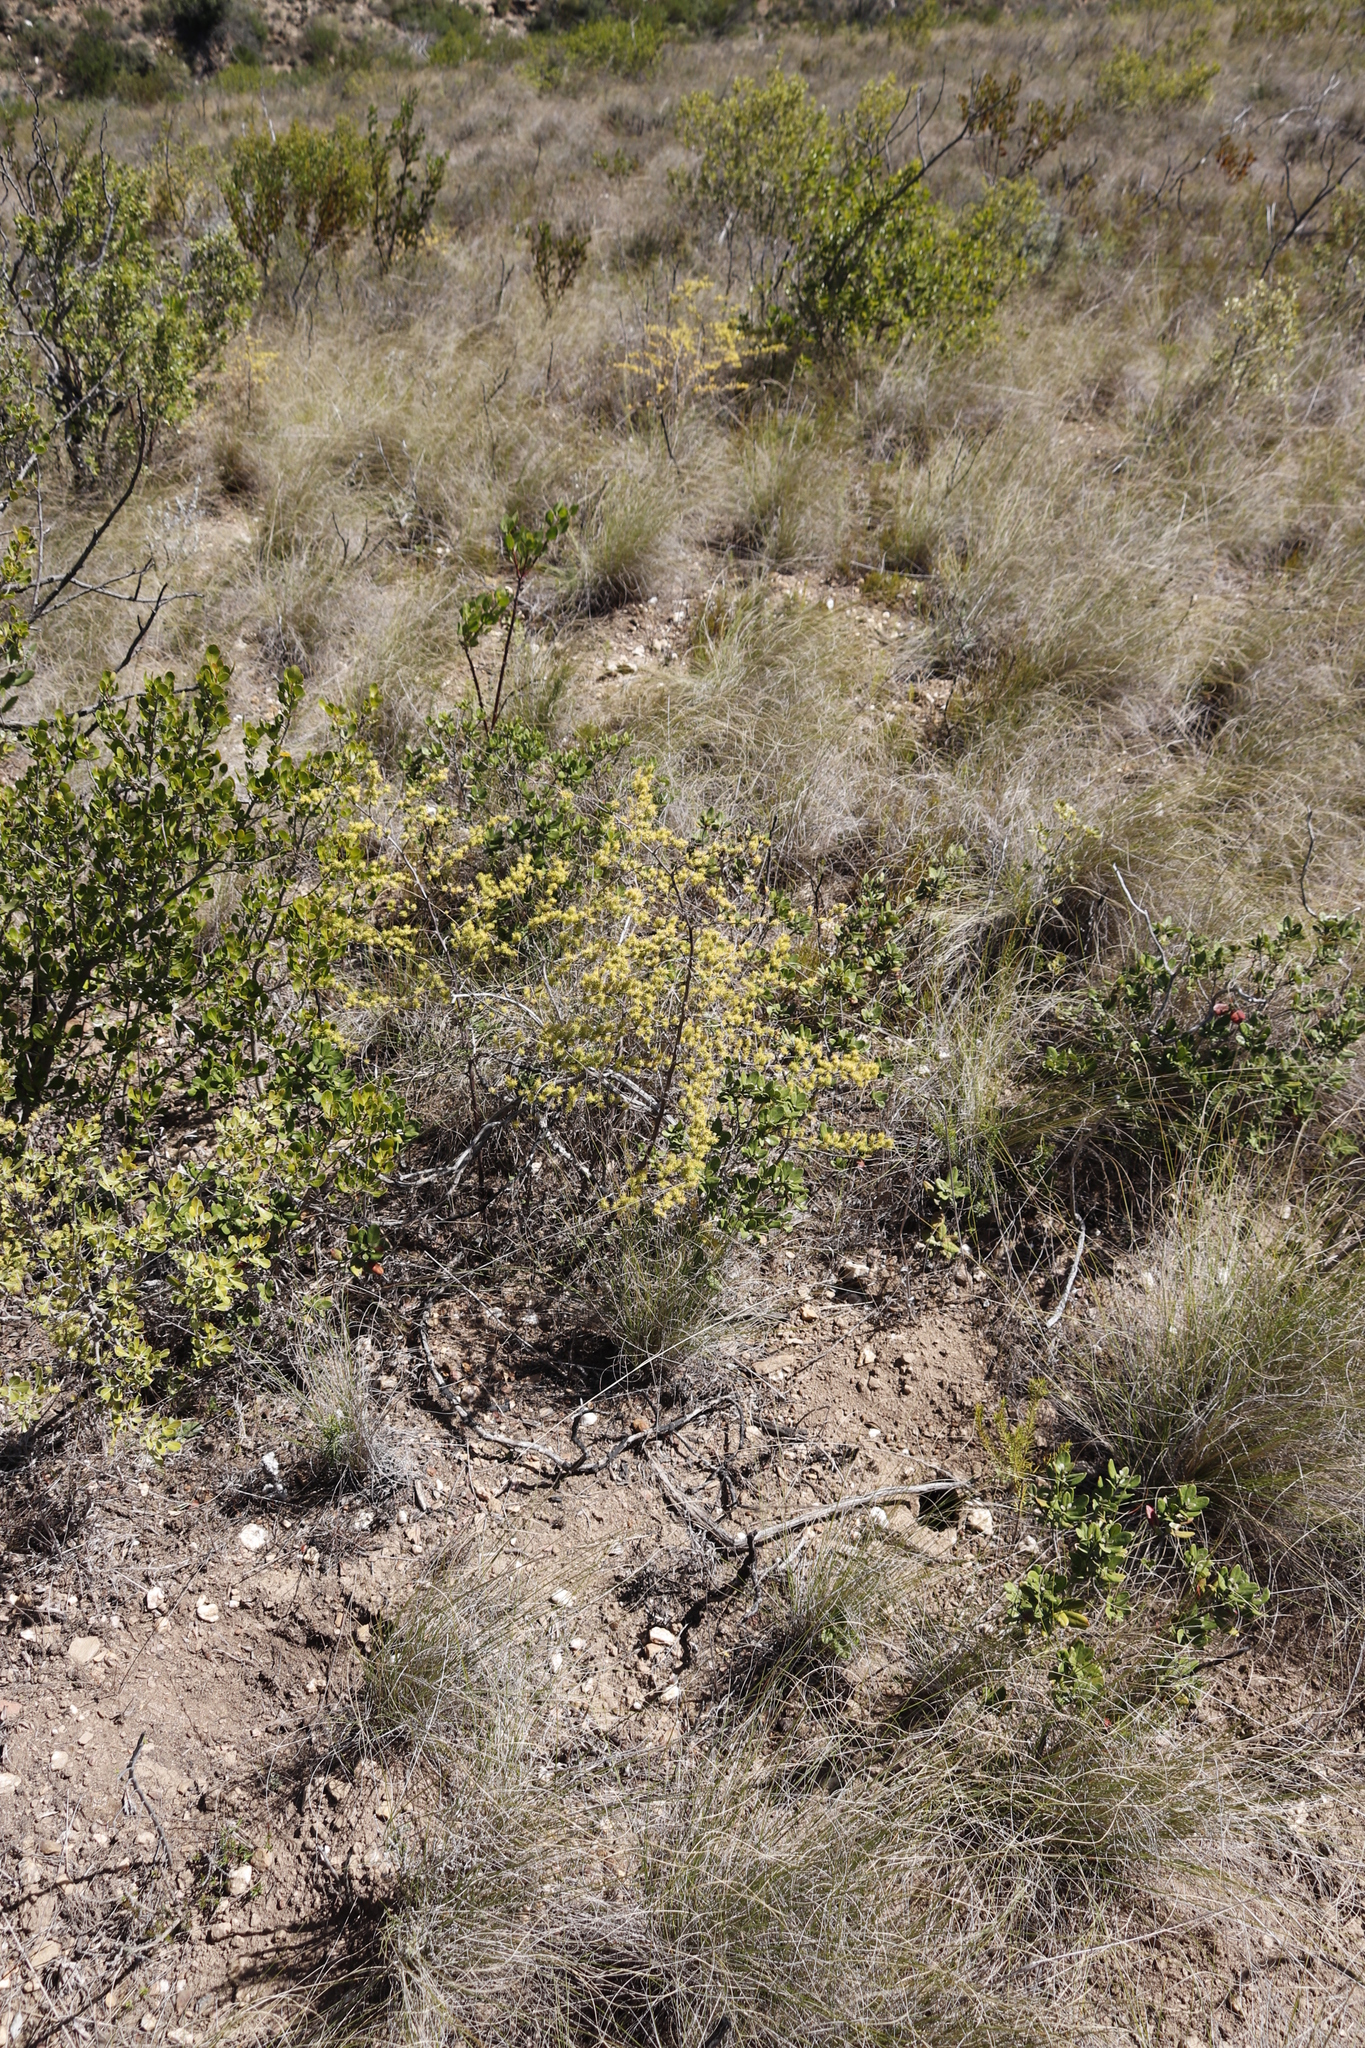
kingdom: Plantae
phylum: Tracheophyta
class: Liliopsida
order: Asparagales
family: Asparagaceae
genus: Asparagus
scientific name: Asparagus rubicundus
